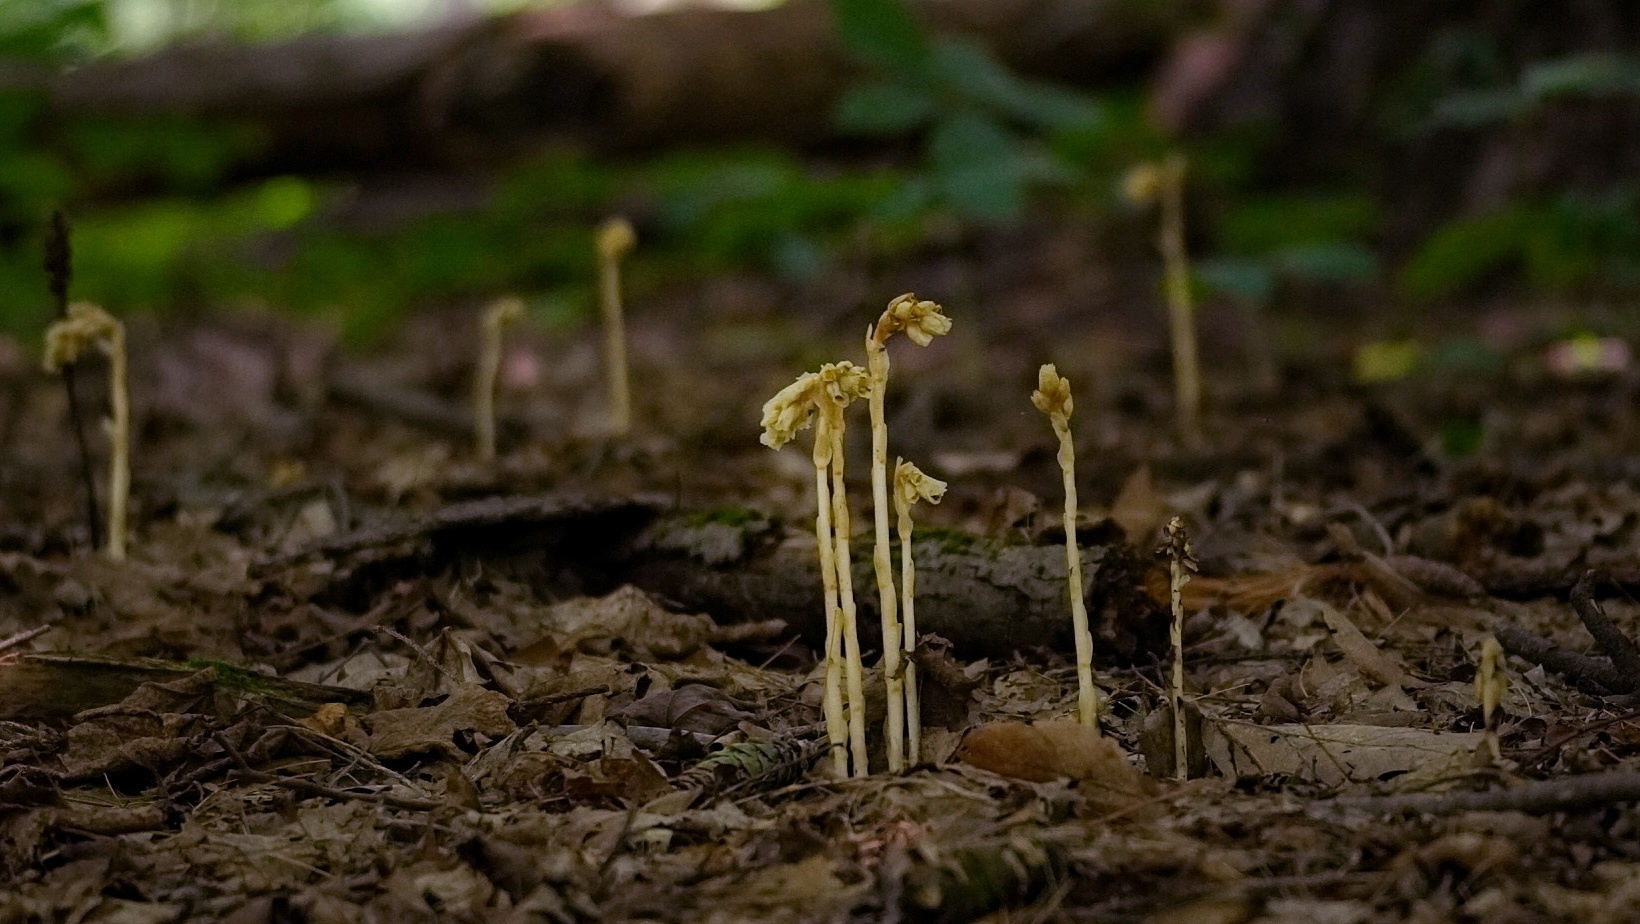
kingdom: Plantae
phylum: Tracheophyta
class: Magnoliopsida
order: Ericales
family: Ericaceae
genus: Hypopitys
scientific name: Hypopitys monotropa
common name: Yellow bird's-nest
